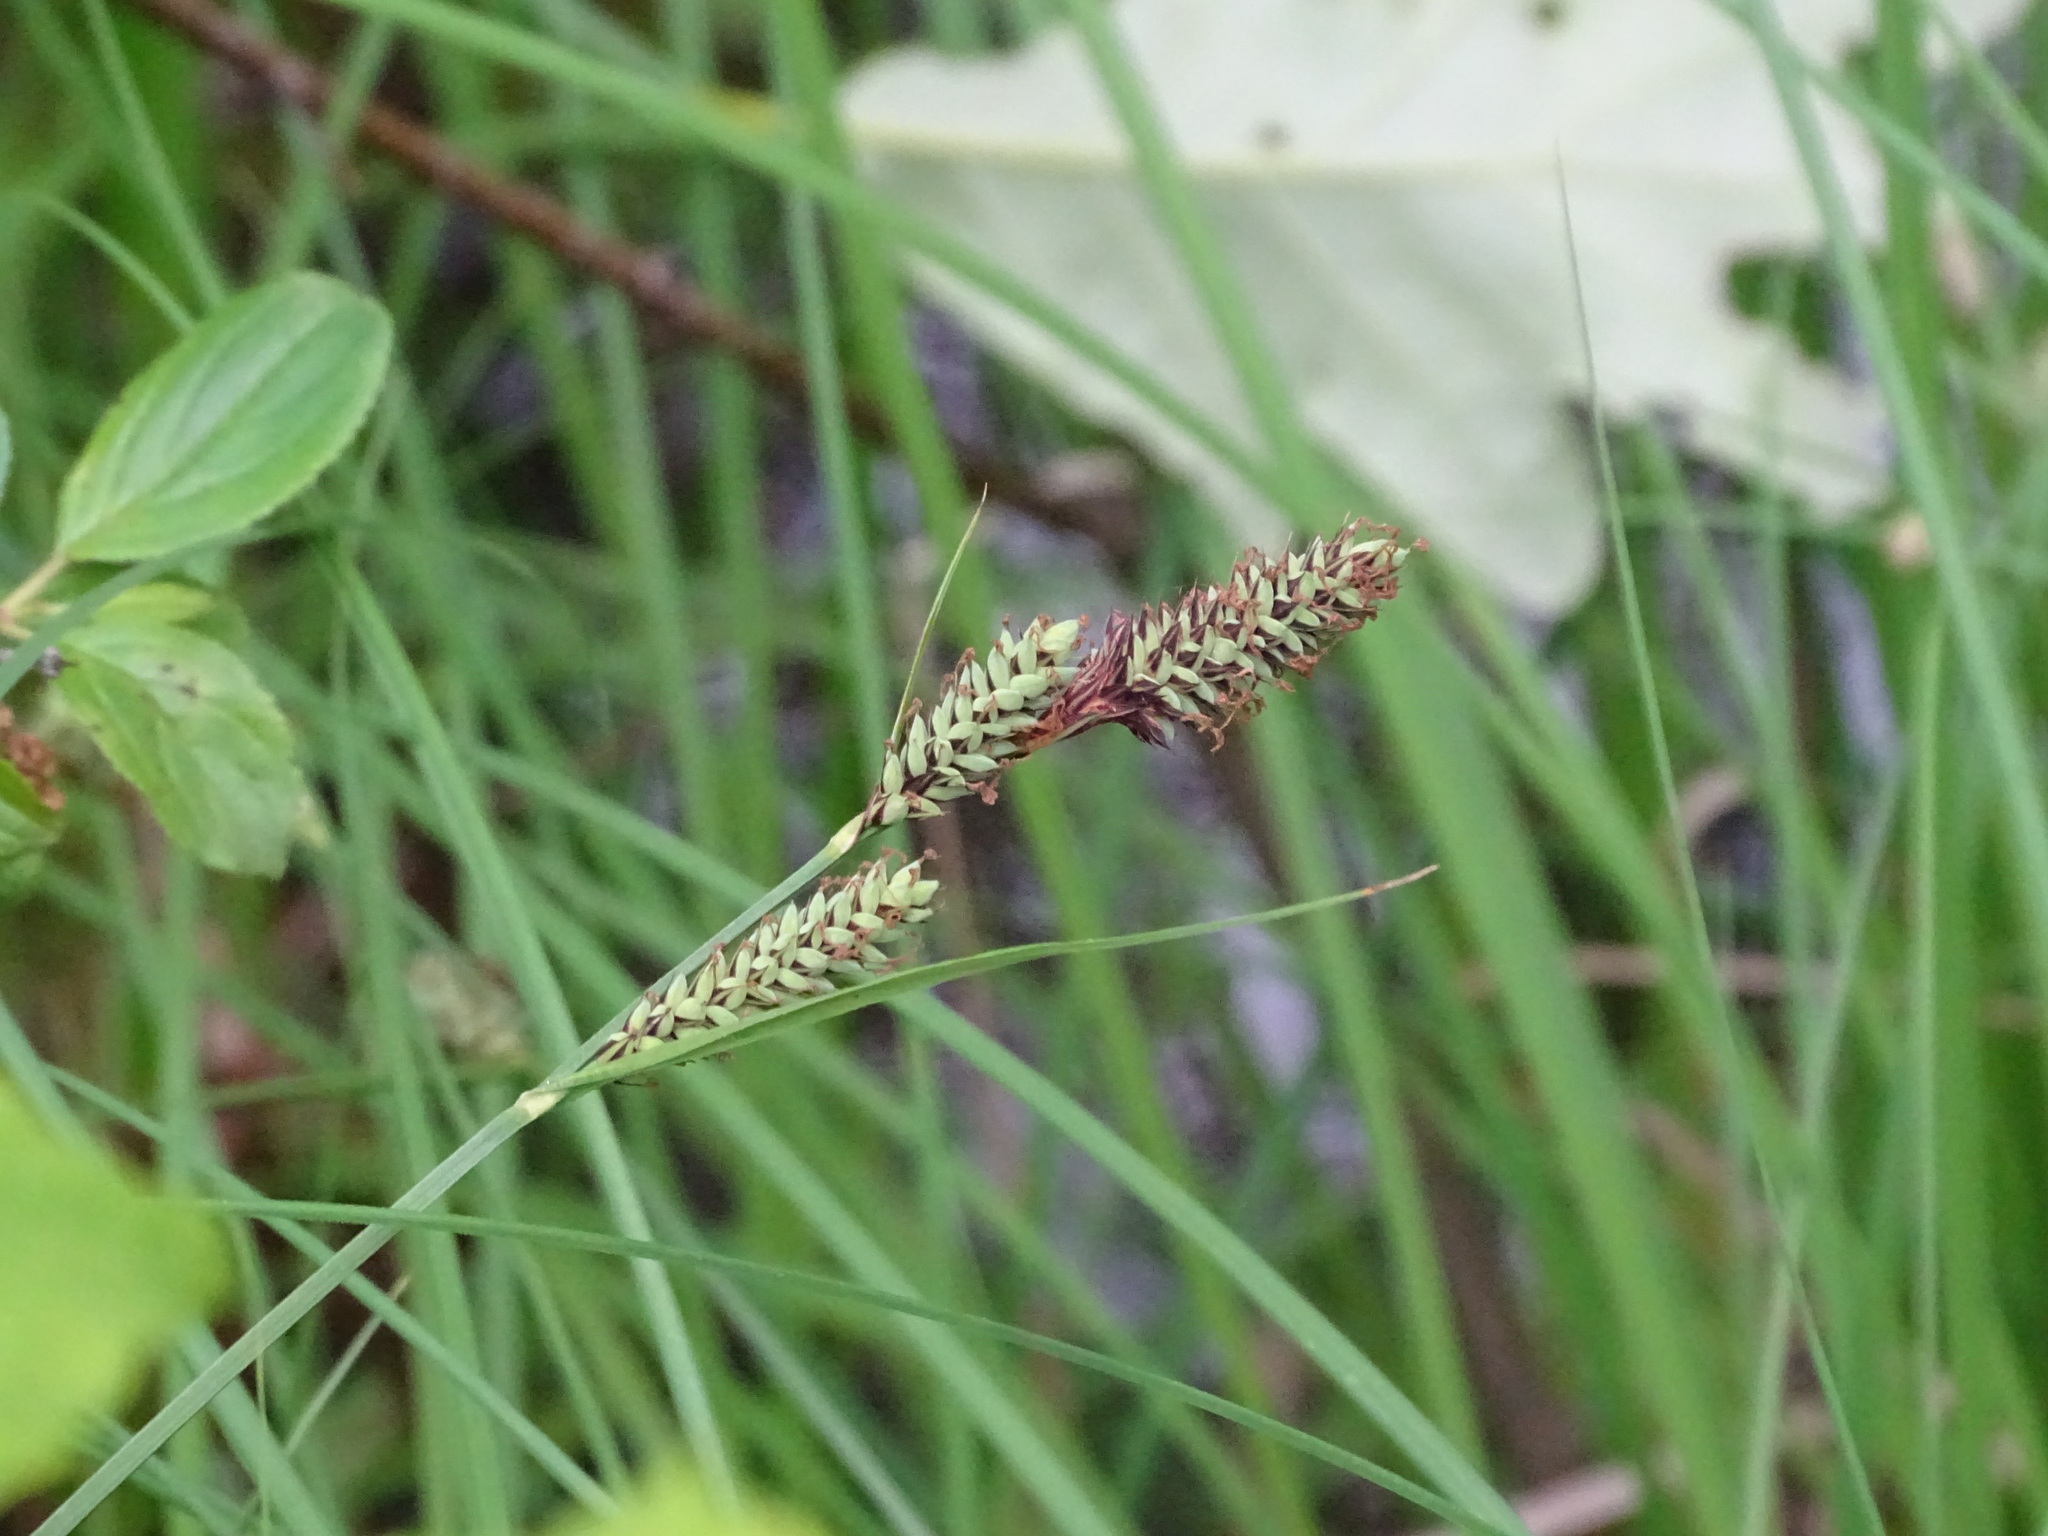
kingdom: Plantae
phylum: Tracheophyta
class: Liliopsida
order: Poales
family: Cyperaceae
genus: Carex
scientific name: Carex buxbaumii
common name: Club sedge
